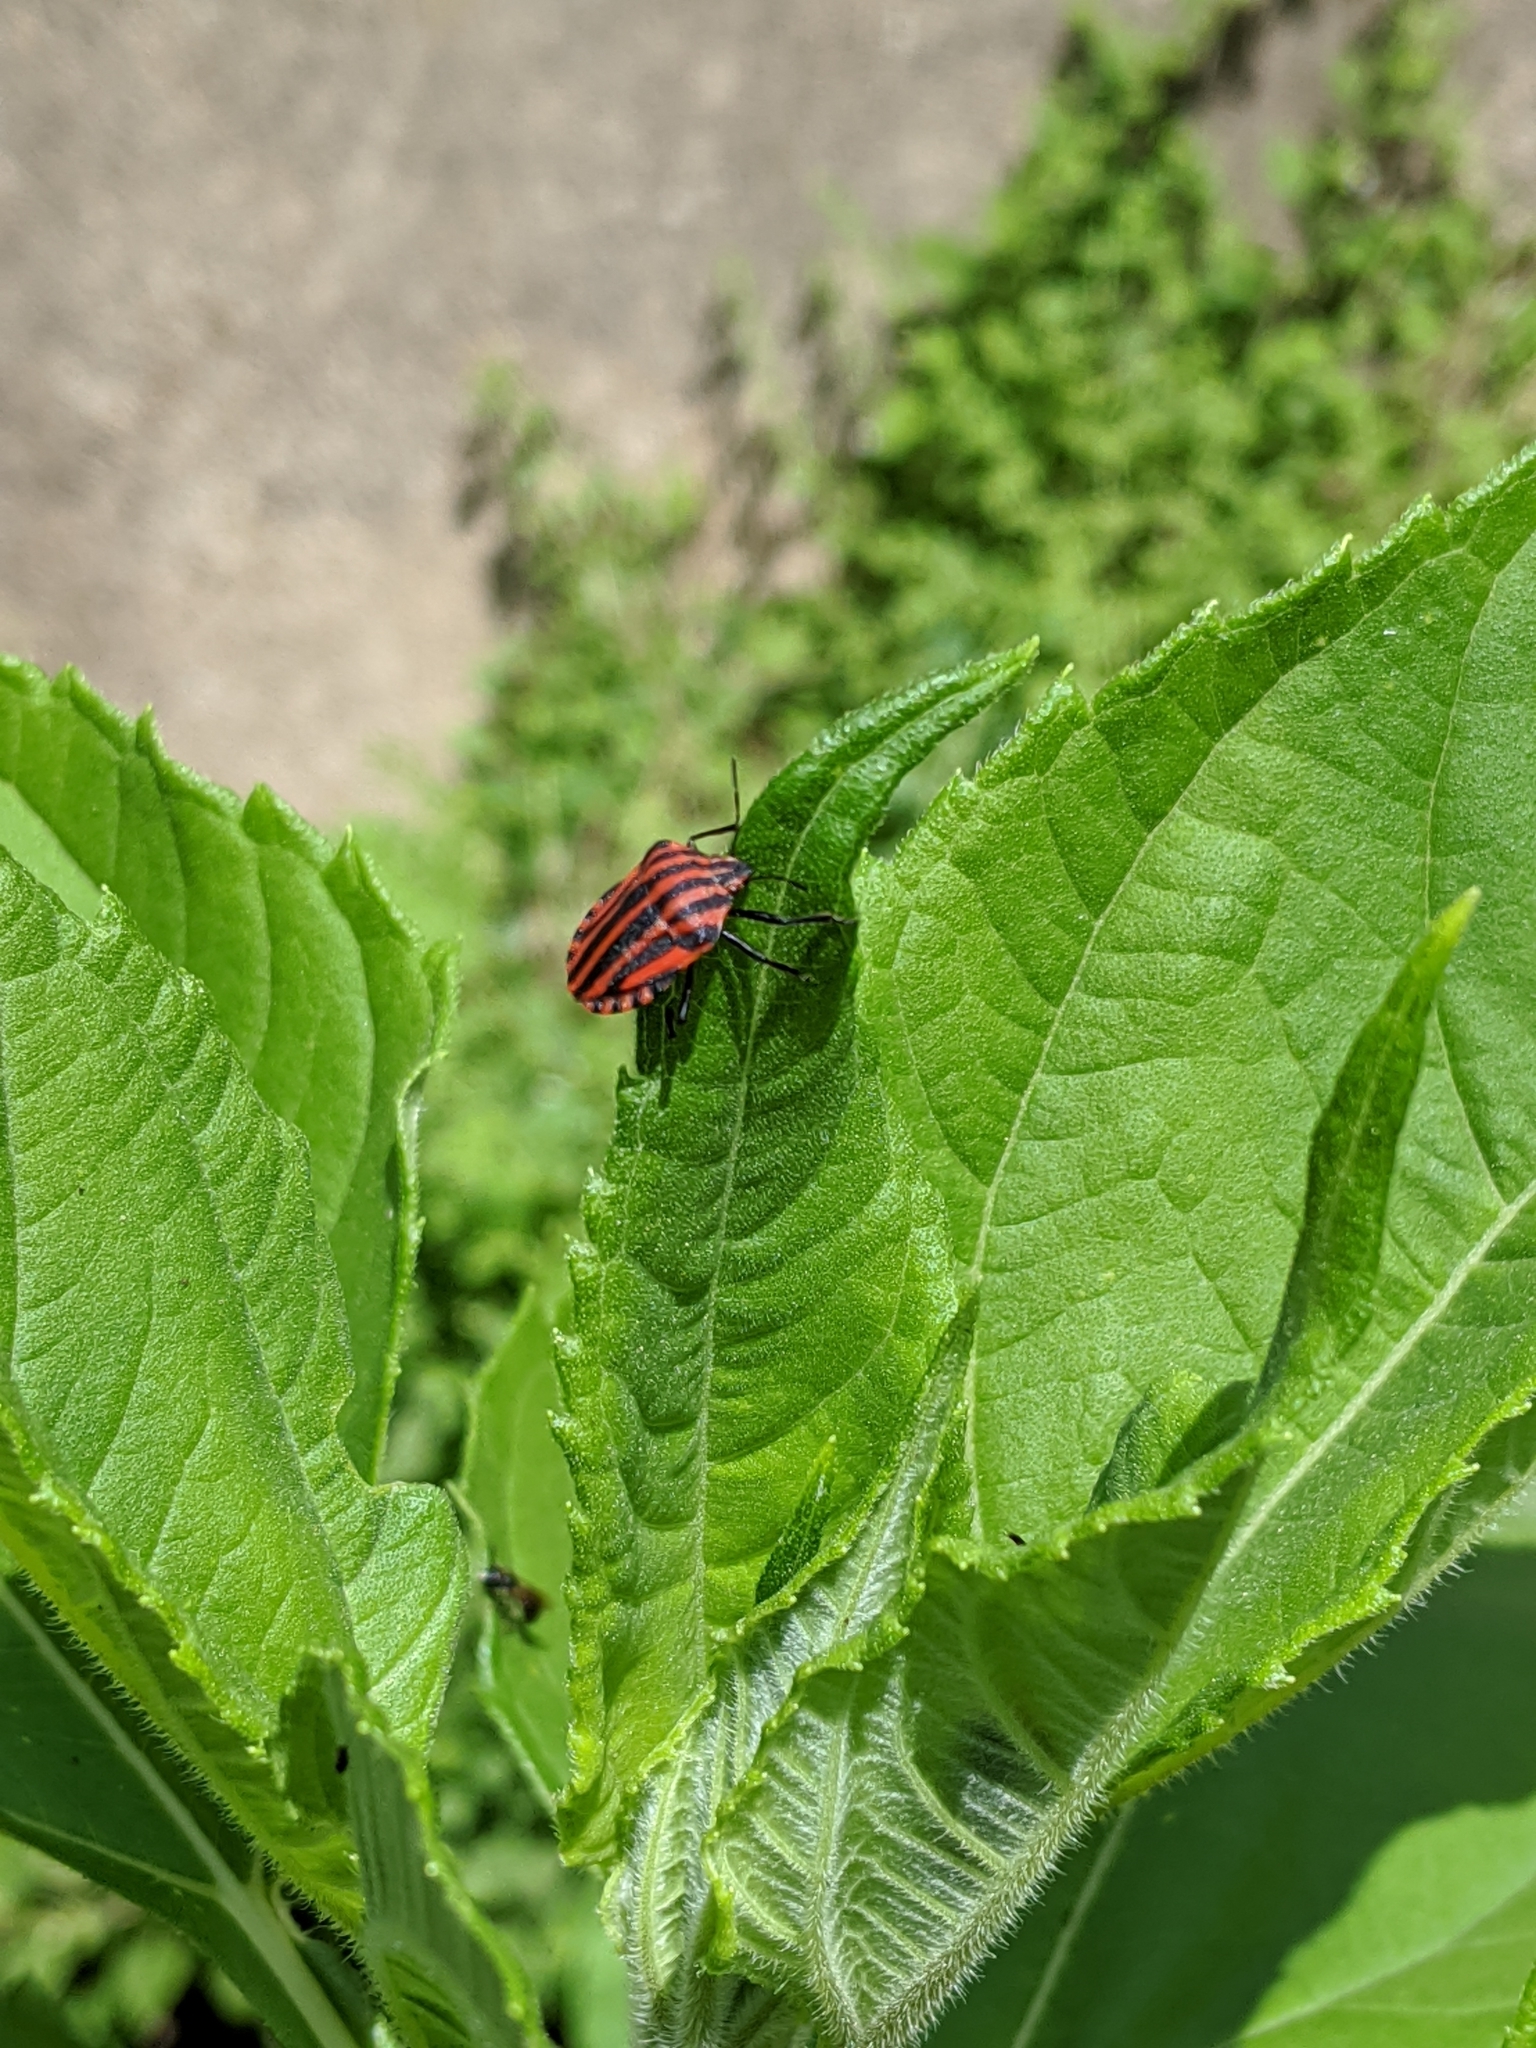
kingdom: Animalia
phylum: Arthropoda
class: Insecta
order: Hemiptera
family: Pentatomidae
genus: Graphosoma
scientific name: Graphosoma italicum
